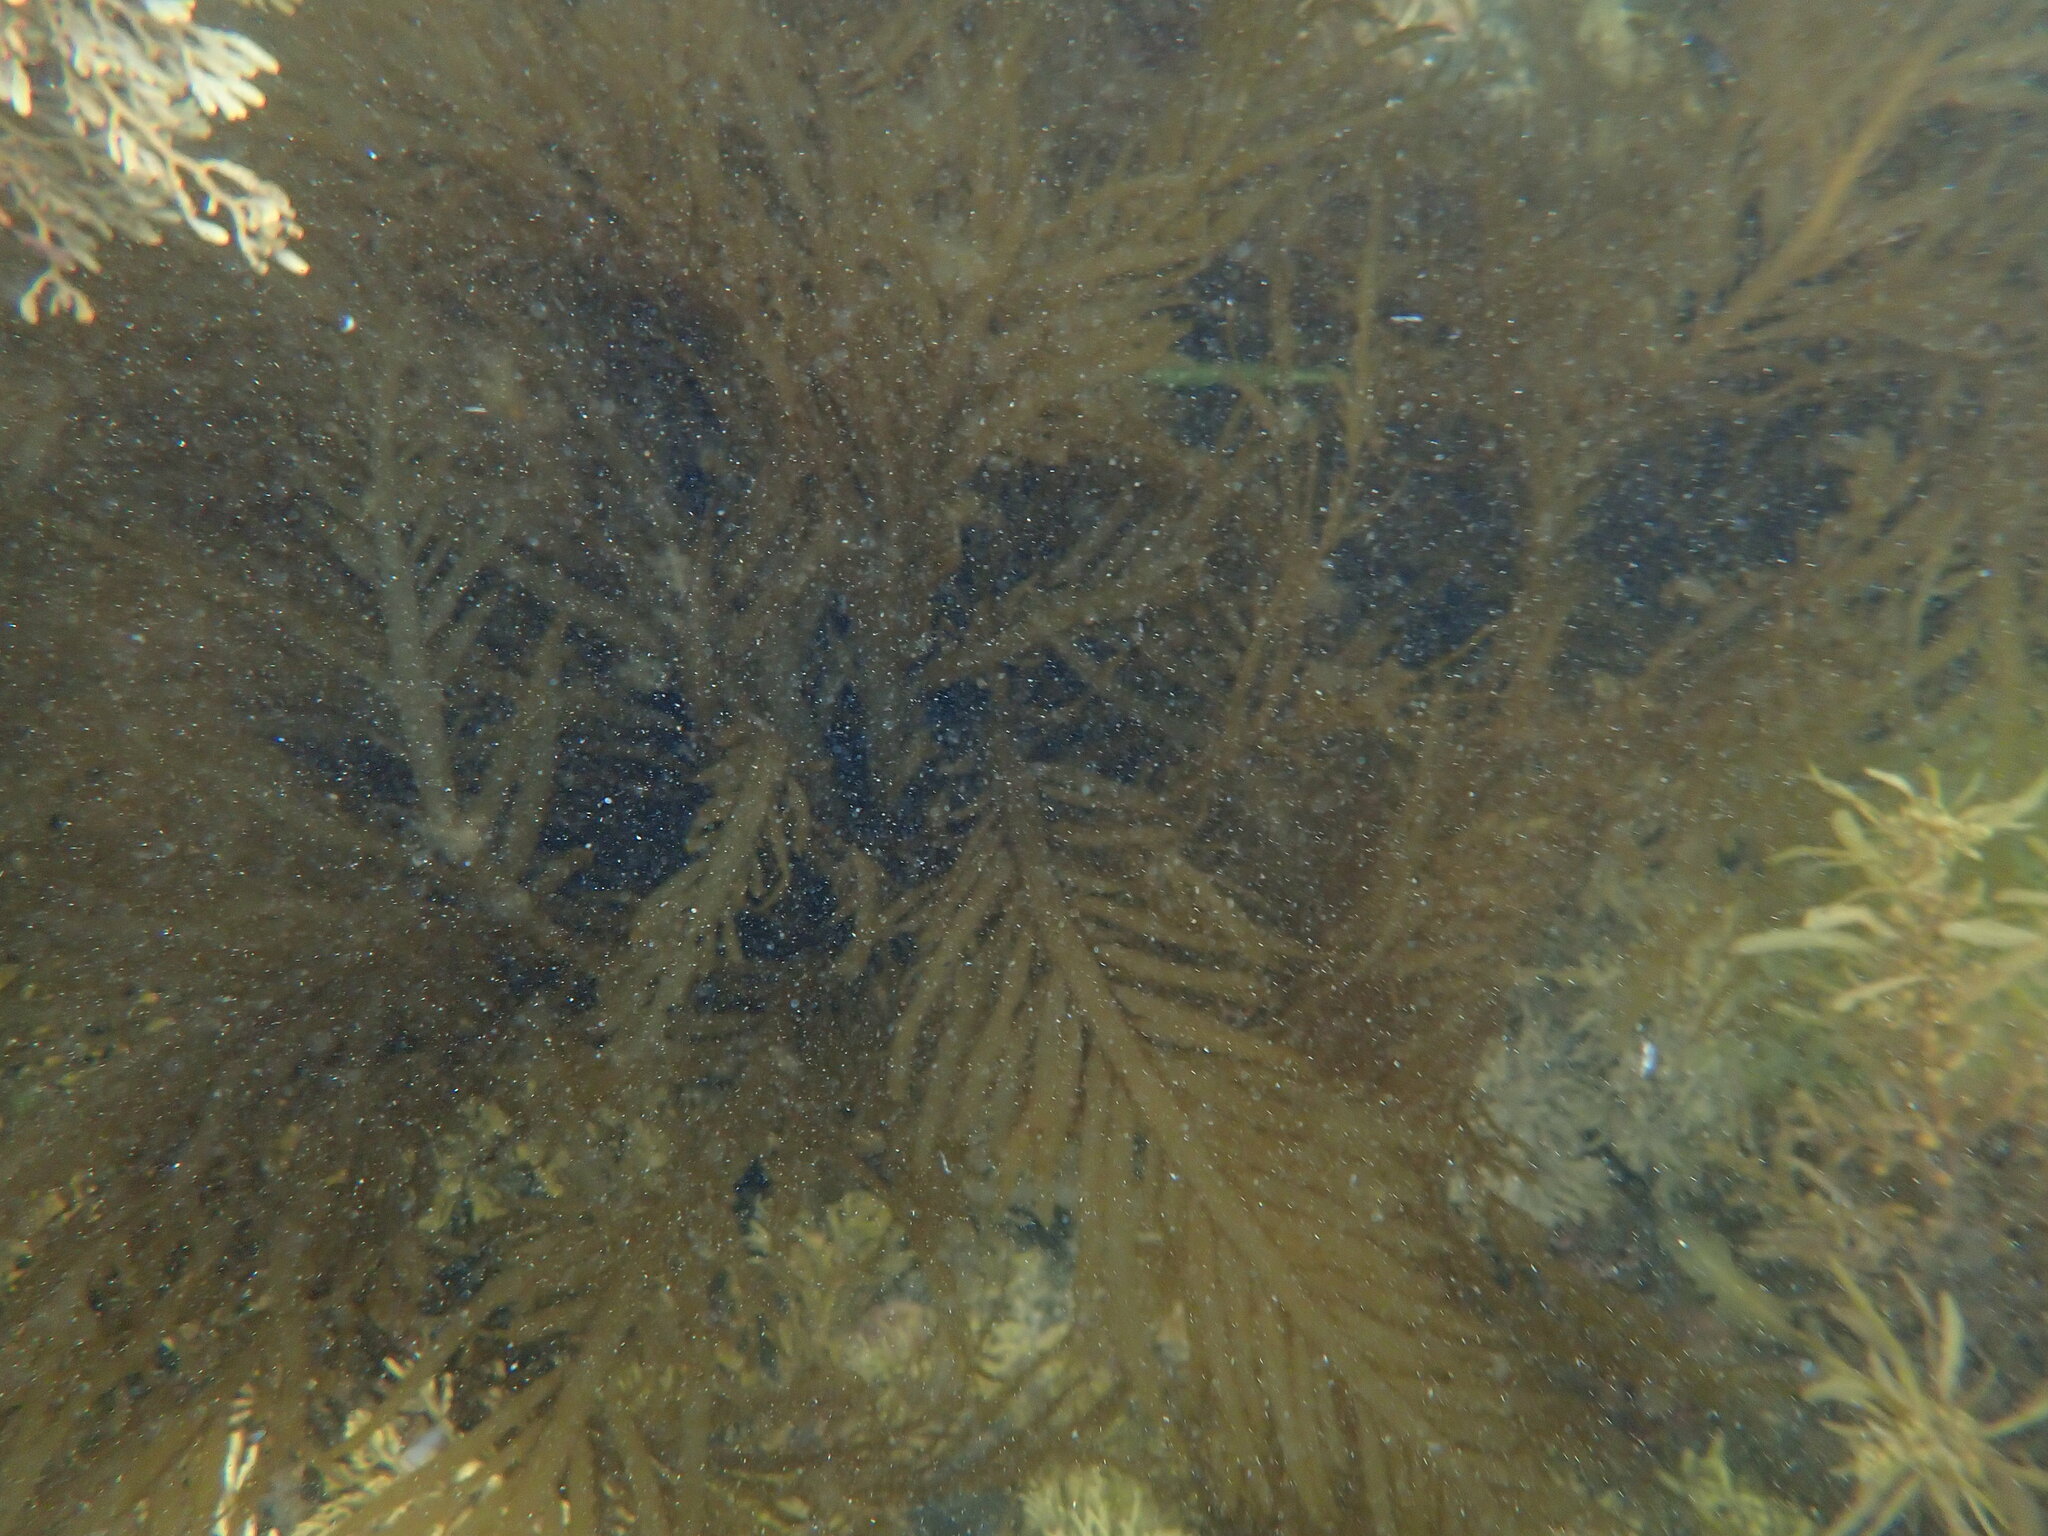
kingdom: Chromista
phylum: Ochrophyta
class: Phaeophyceae
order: Desmarestiales
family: Desmarestiaceae
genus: Desmarestia
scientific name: Desmarestia ligulata
